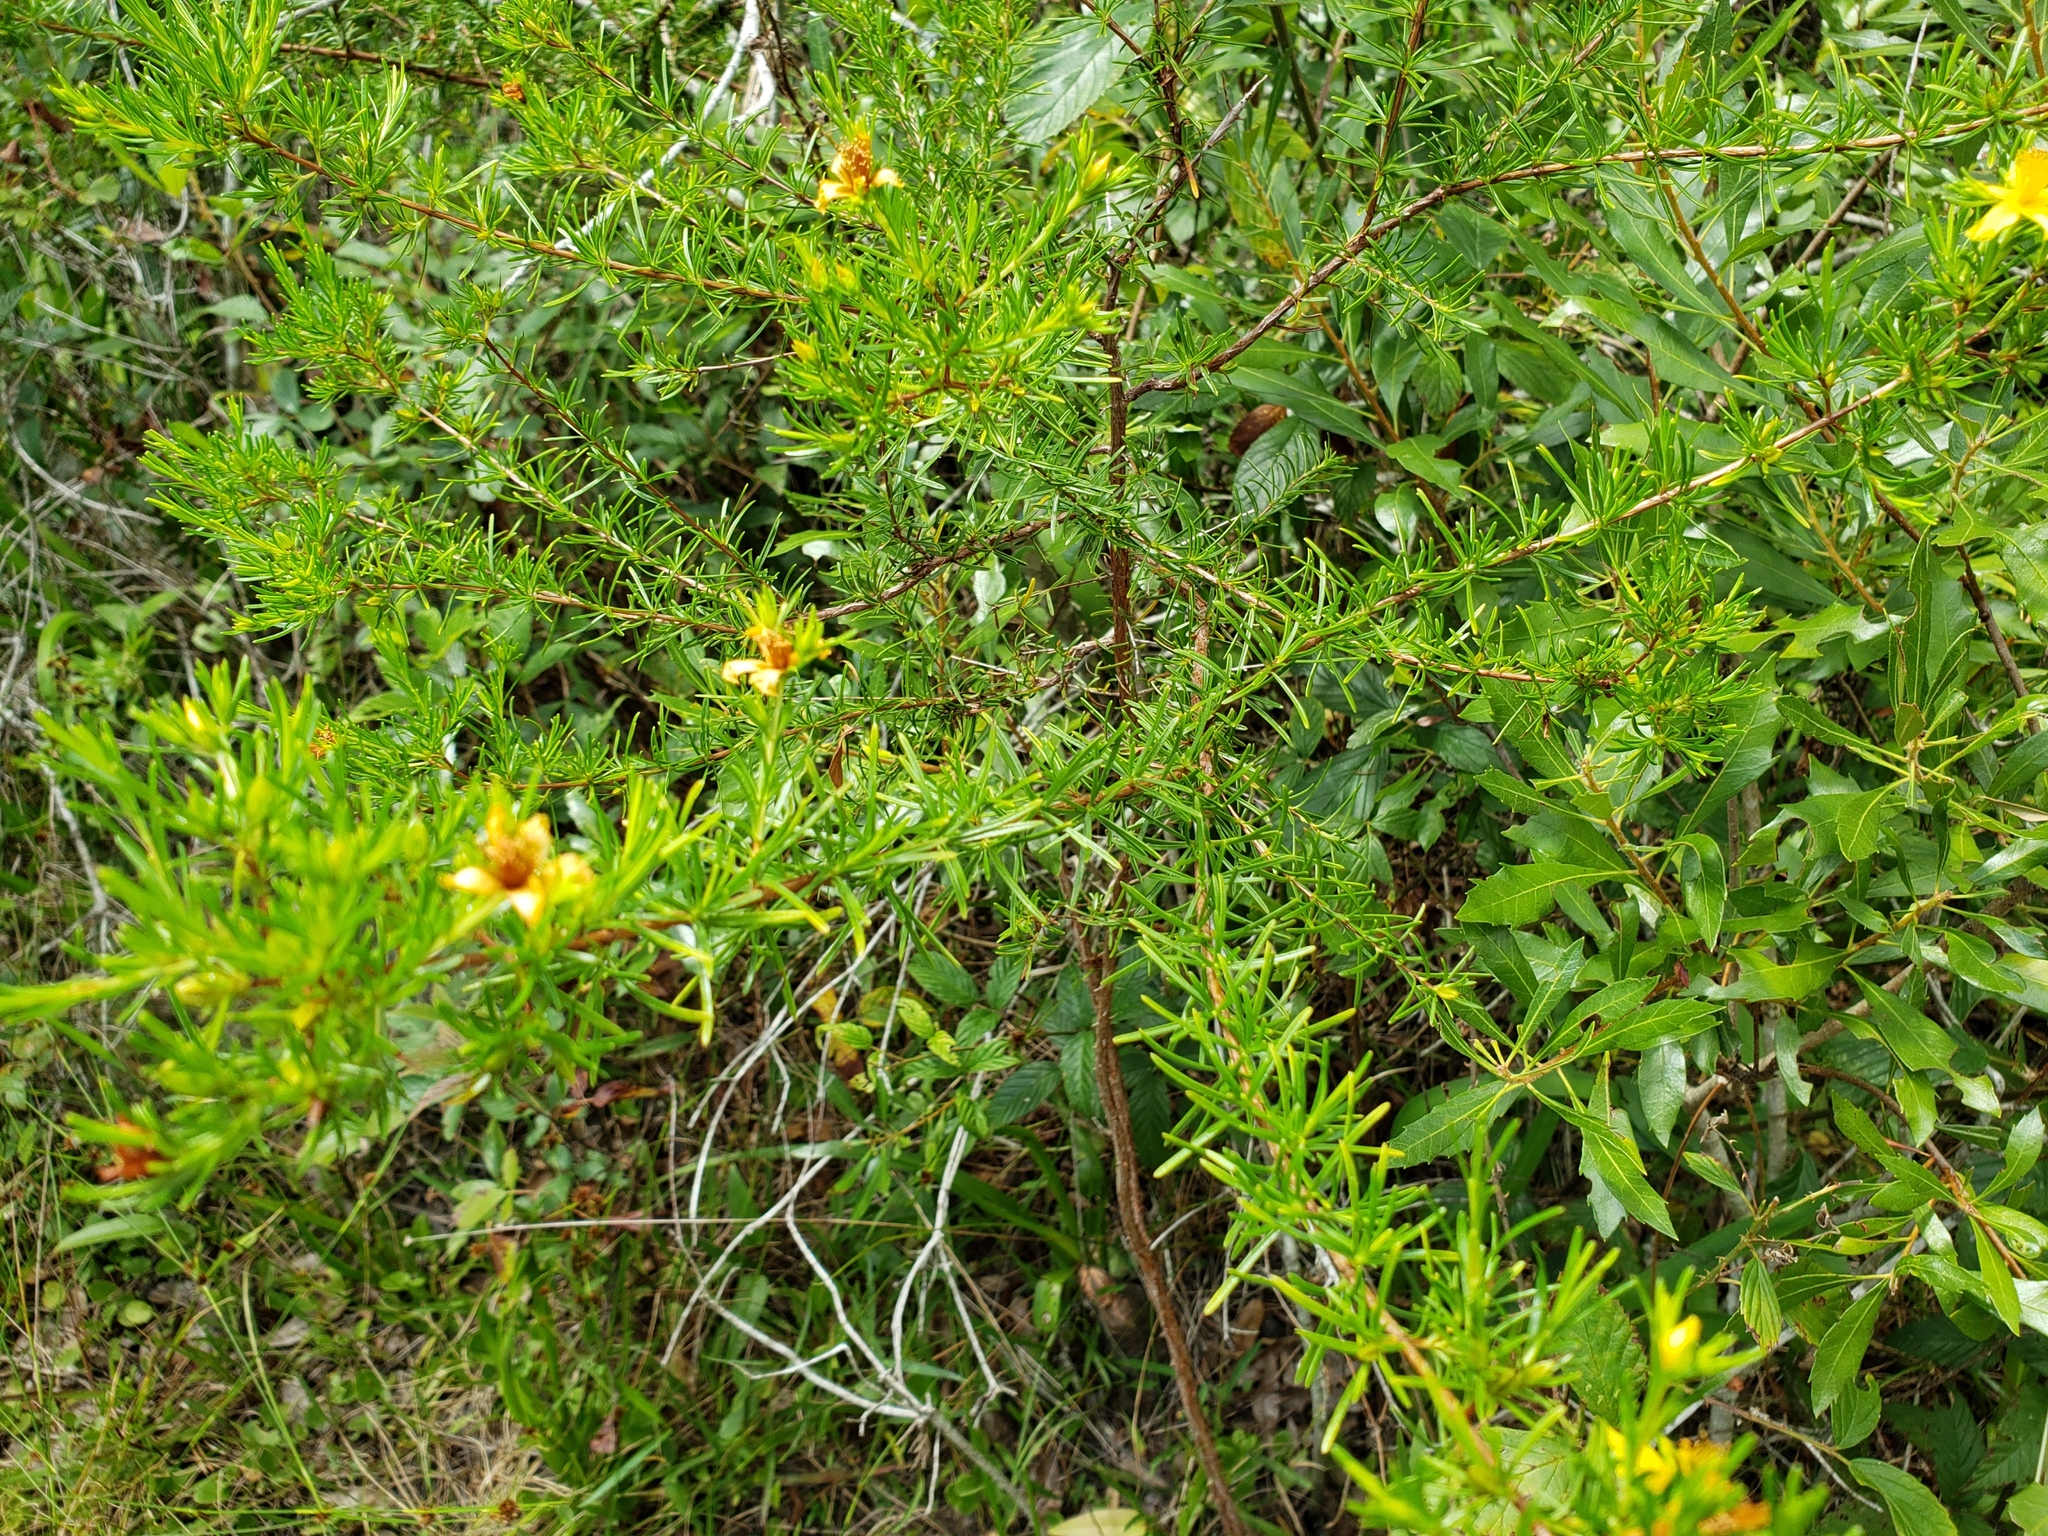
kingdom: Plantae
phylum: Tracheophyta
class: Magnoliopsida
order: Malpighiales
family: Hypericaceae
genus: Hypericum
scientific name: Hypericum fasciculatum
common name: Peelbark st. john's wort
